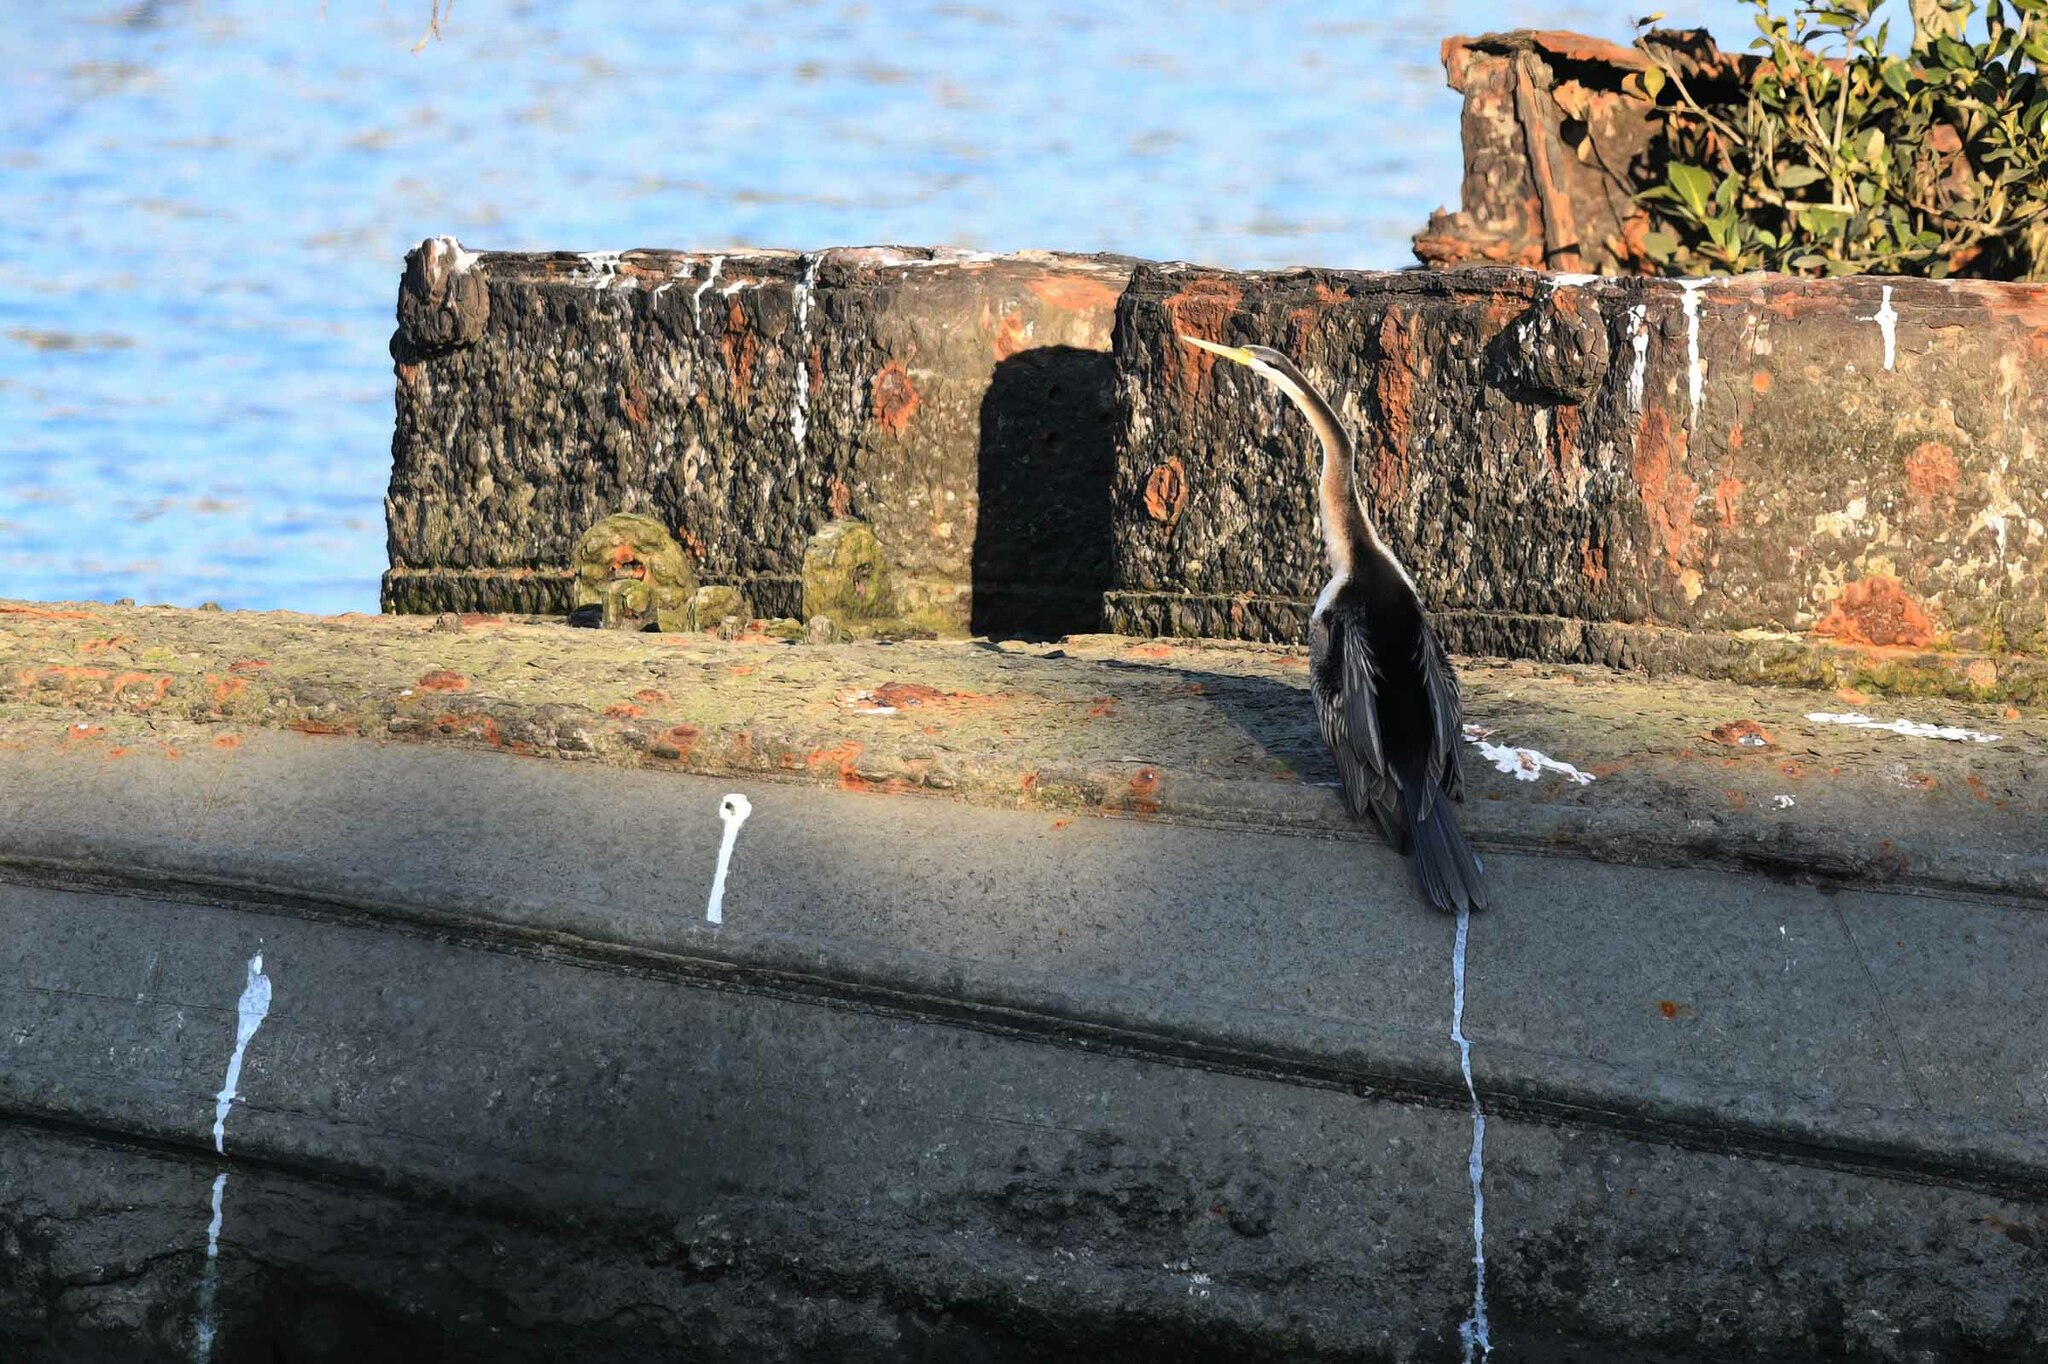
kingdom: Animalia
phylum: Chordata
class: Aves
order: Suliformes
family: Anhingidae
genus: Anhinga
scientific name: Anhinga novaehollandiae
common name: Australasian darter
